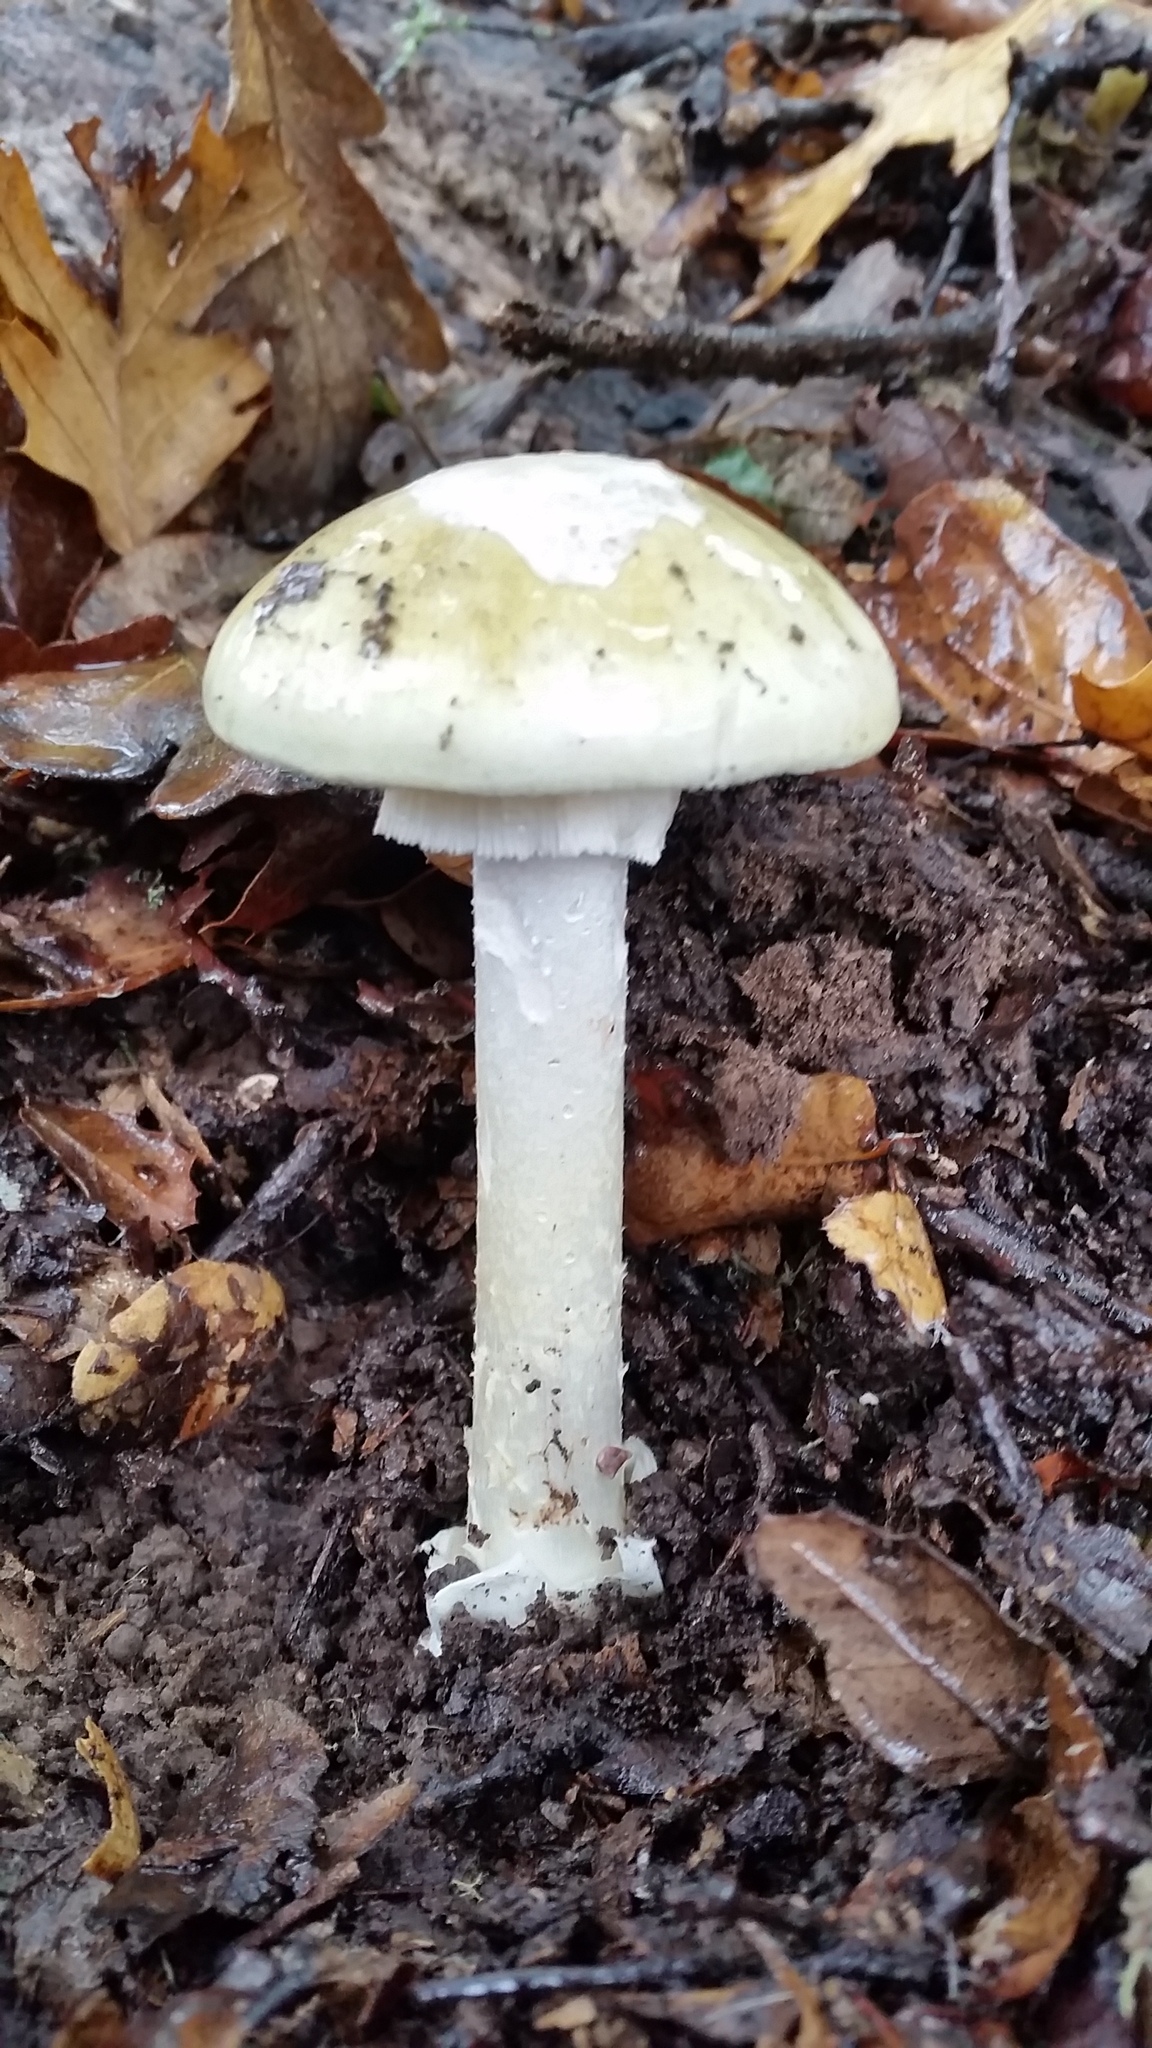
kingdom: Fungi
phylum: Basidiomycota
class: Agaricomycetes
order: Agaricales
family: Amanitaceae
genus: Amanita
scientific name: Amanita phalloides
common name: Death cap
